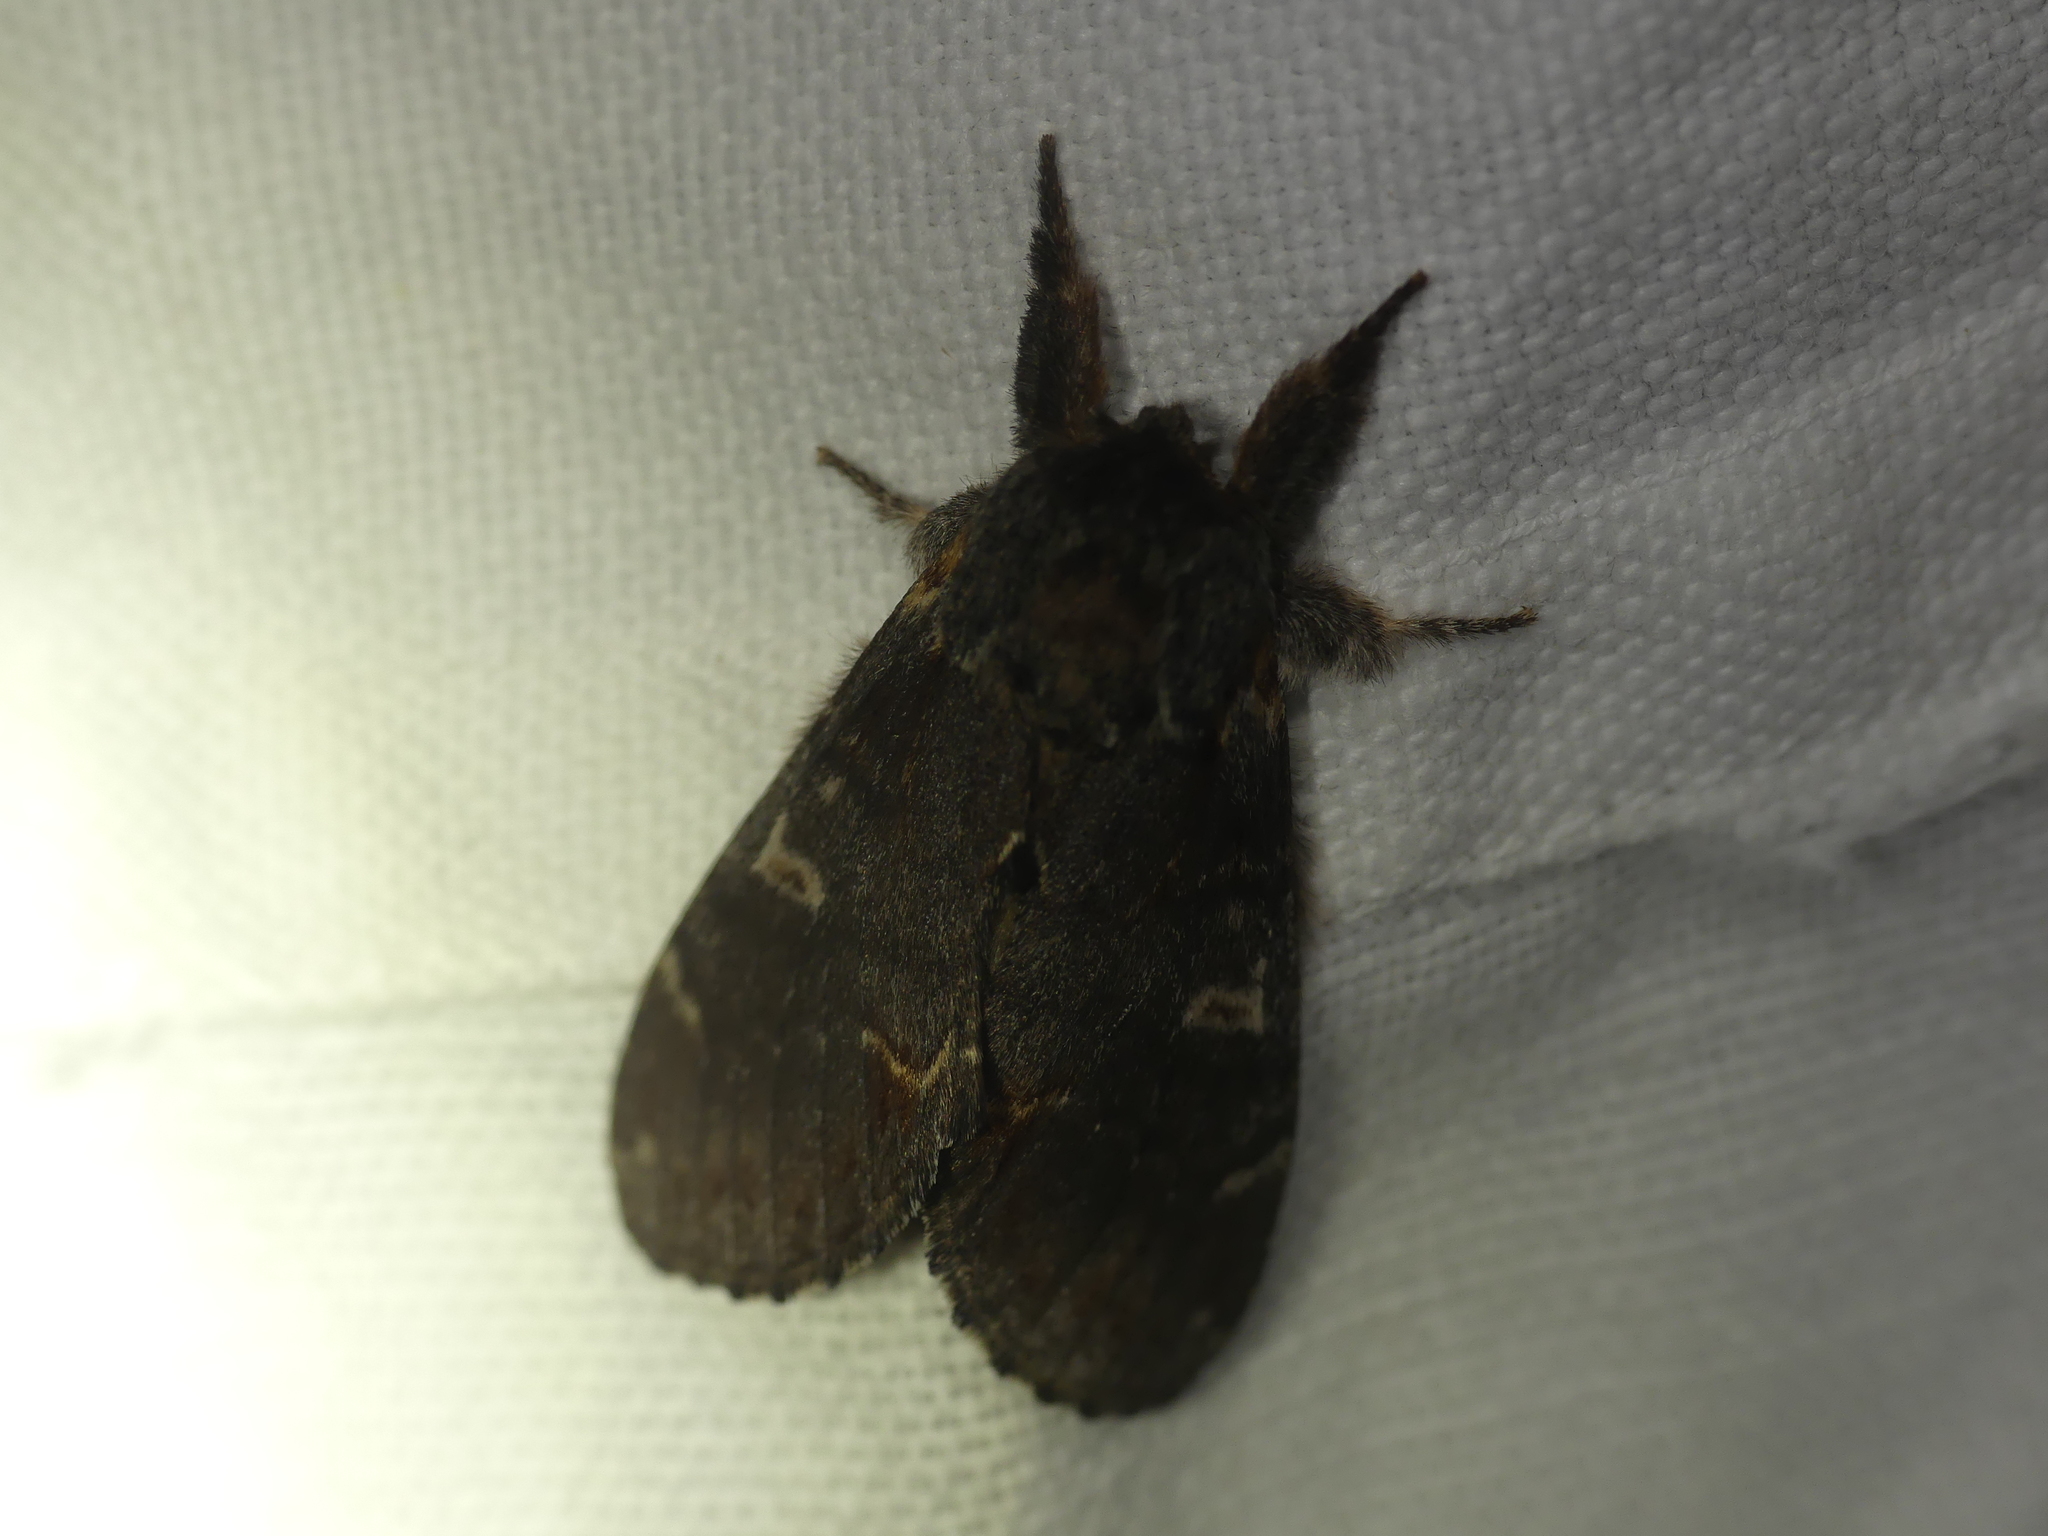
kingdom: Animalia
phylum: Arthropoda
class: Insecta
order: Lepidoptera
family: Notodontidae
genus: Notodonta
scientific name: Notodonta dromedarius
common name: Iron prominent
